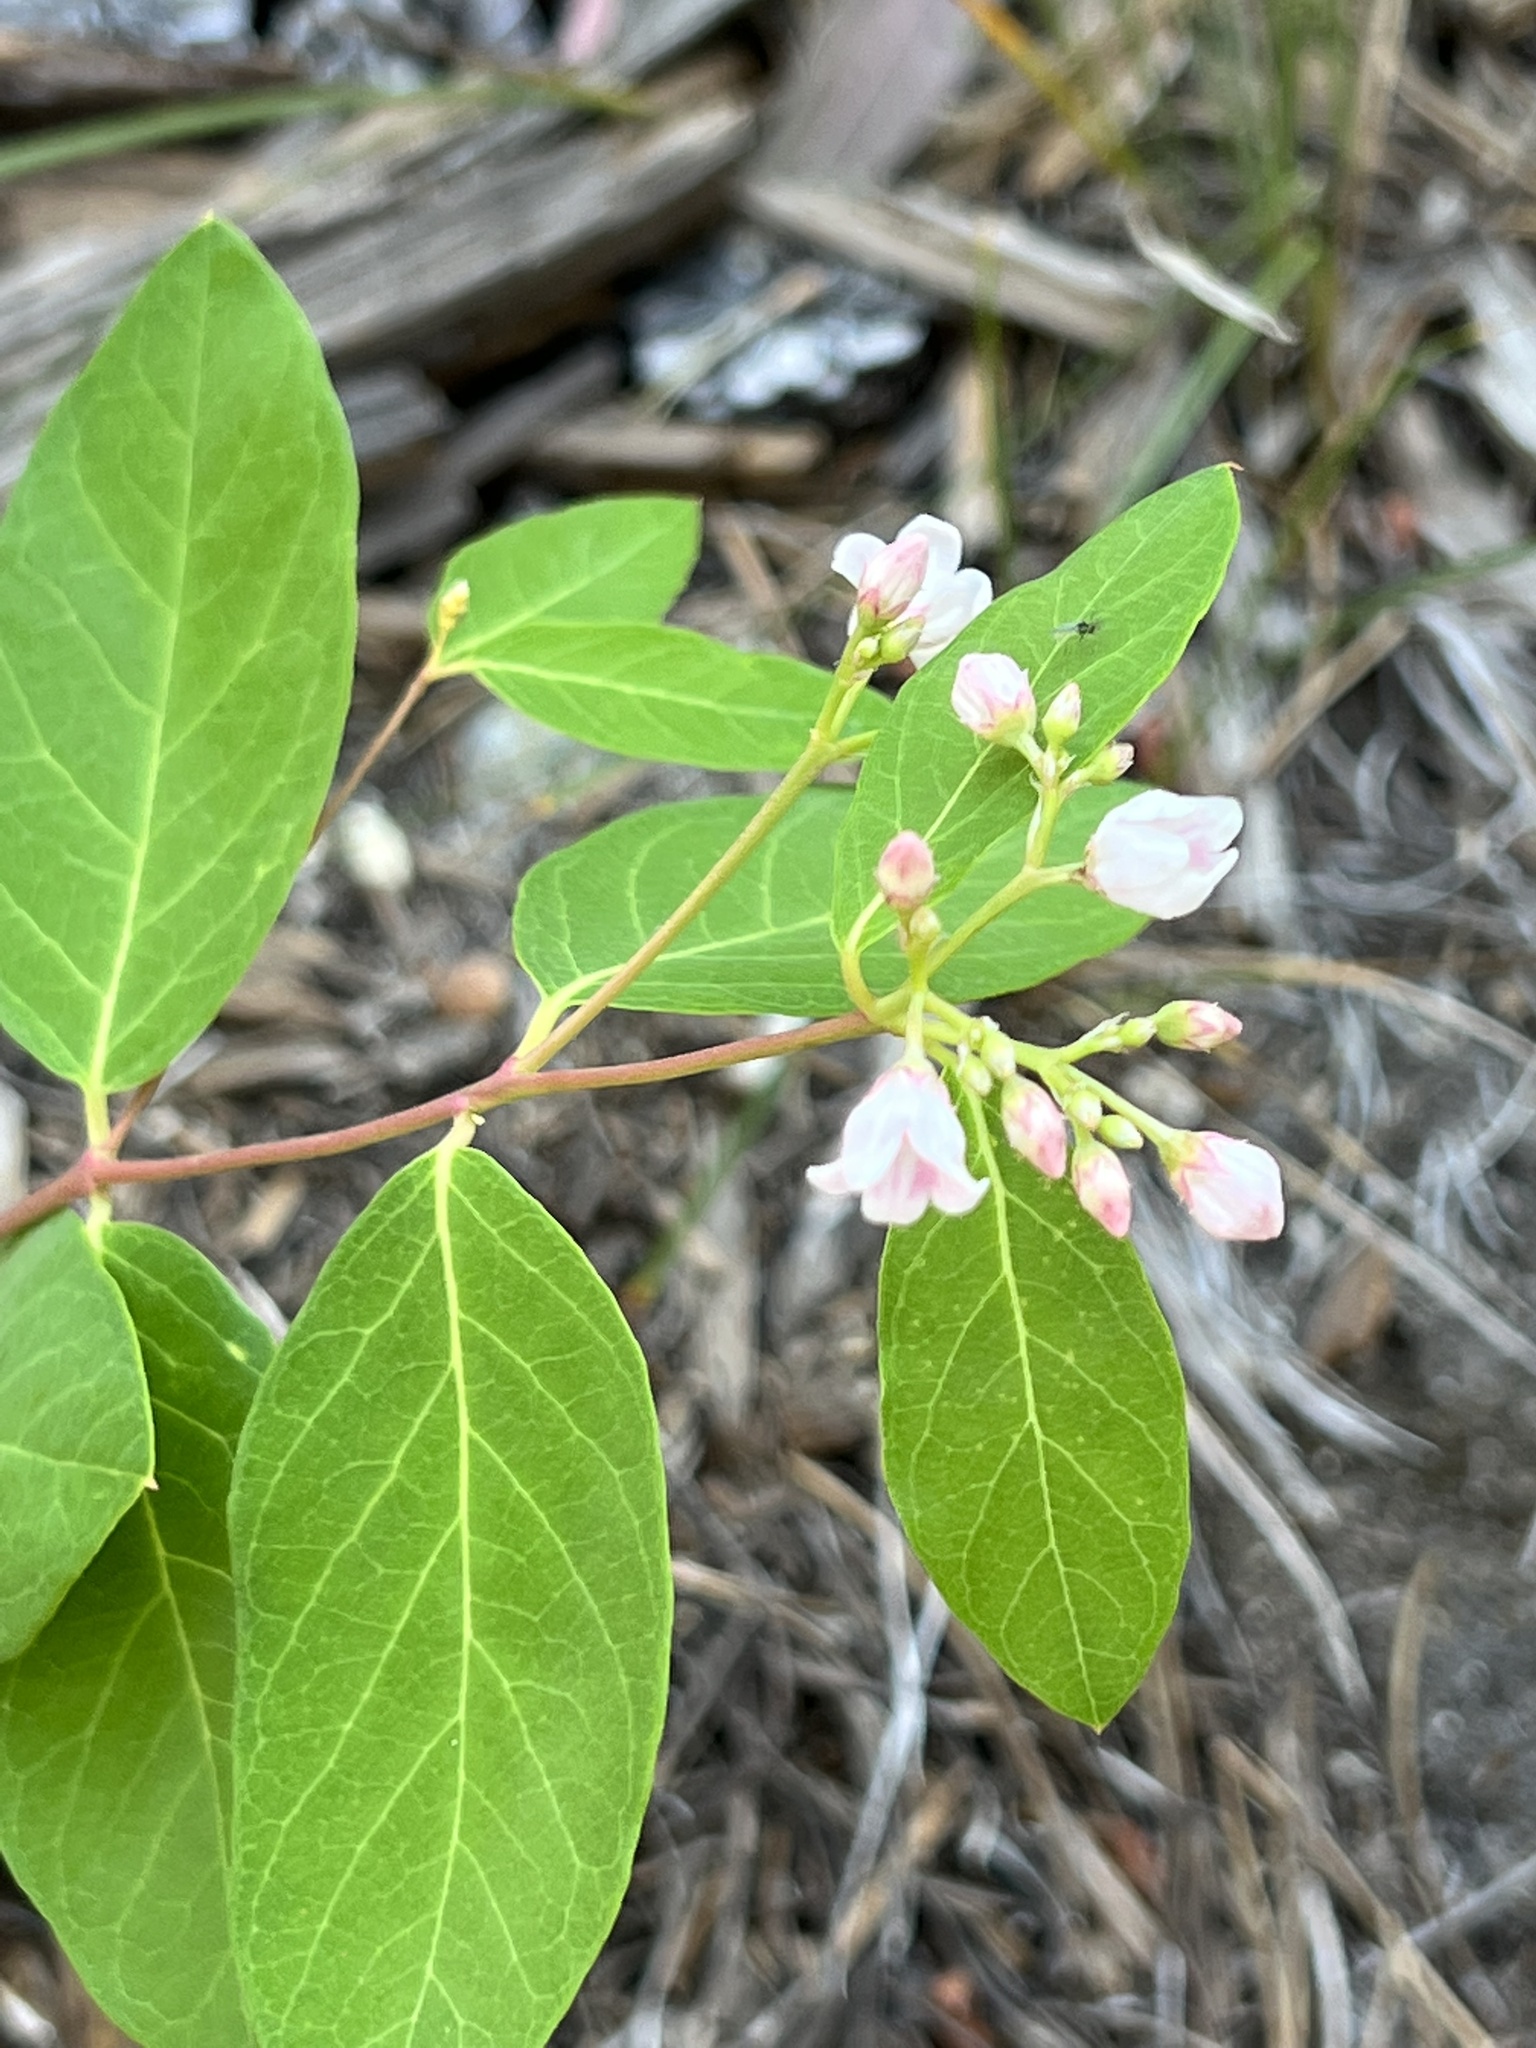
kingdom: Plantae
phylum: Tracheophyta
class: Magnoliopsida
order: Gentianales
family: Apocynaceae
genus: Apocynum
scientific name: Apocynum androsaemifolium
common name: Spreading dogbane
